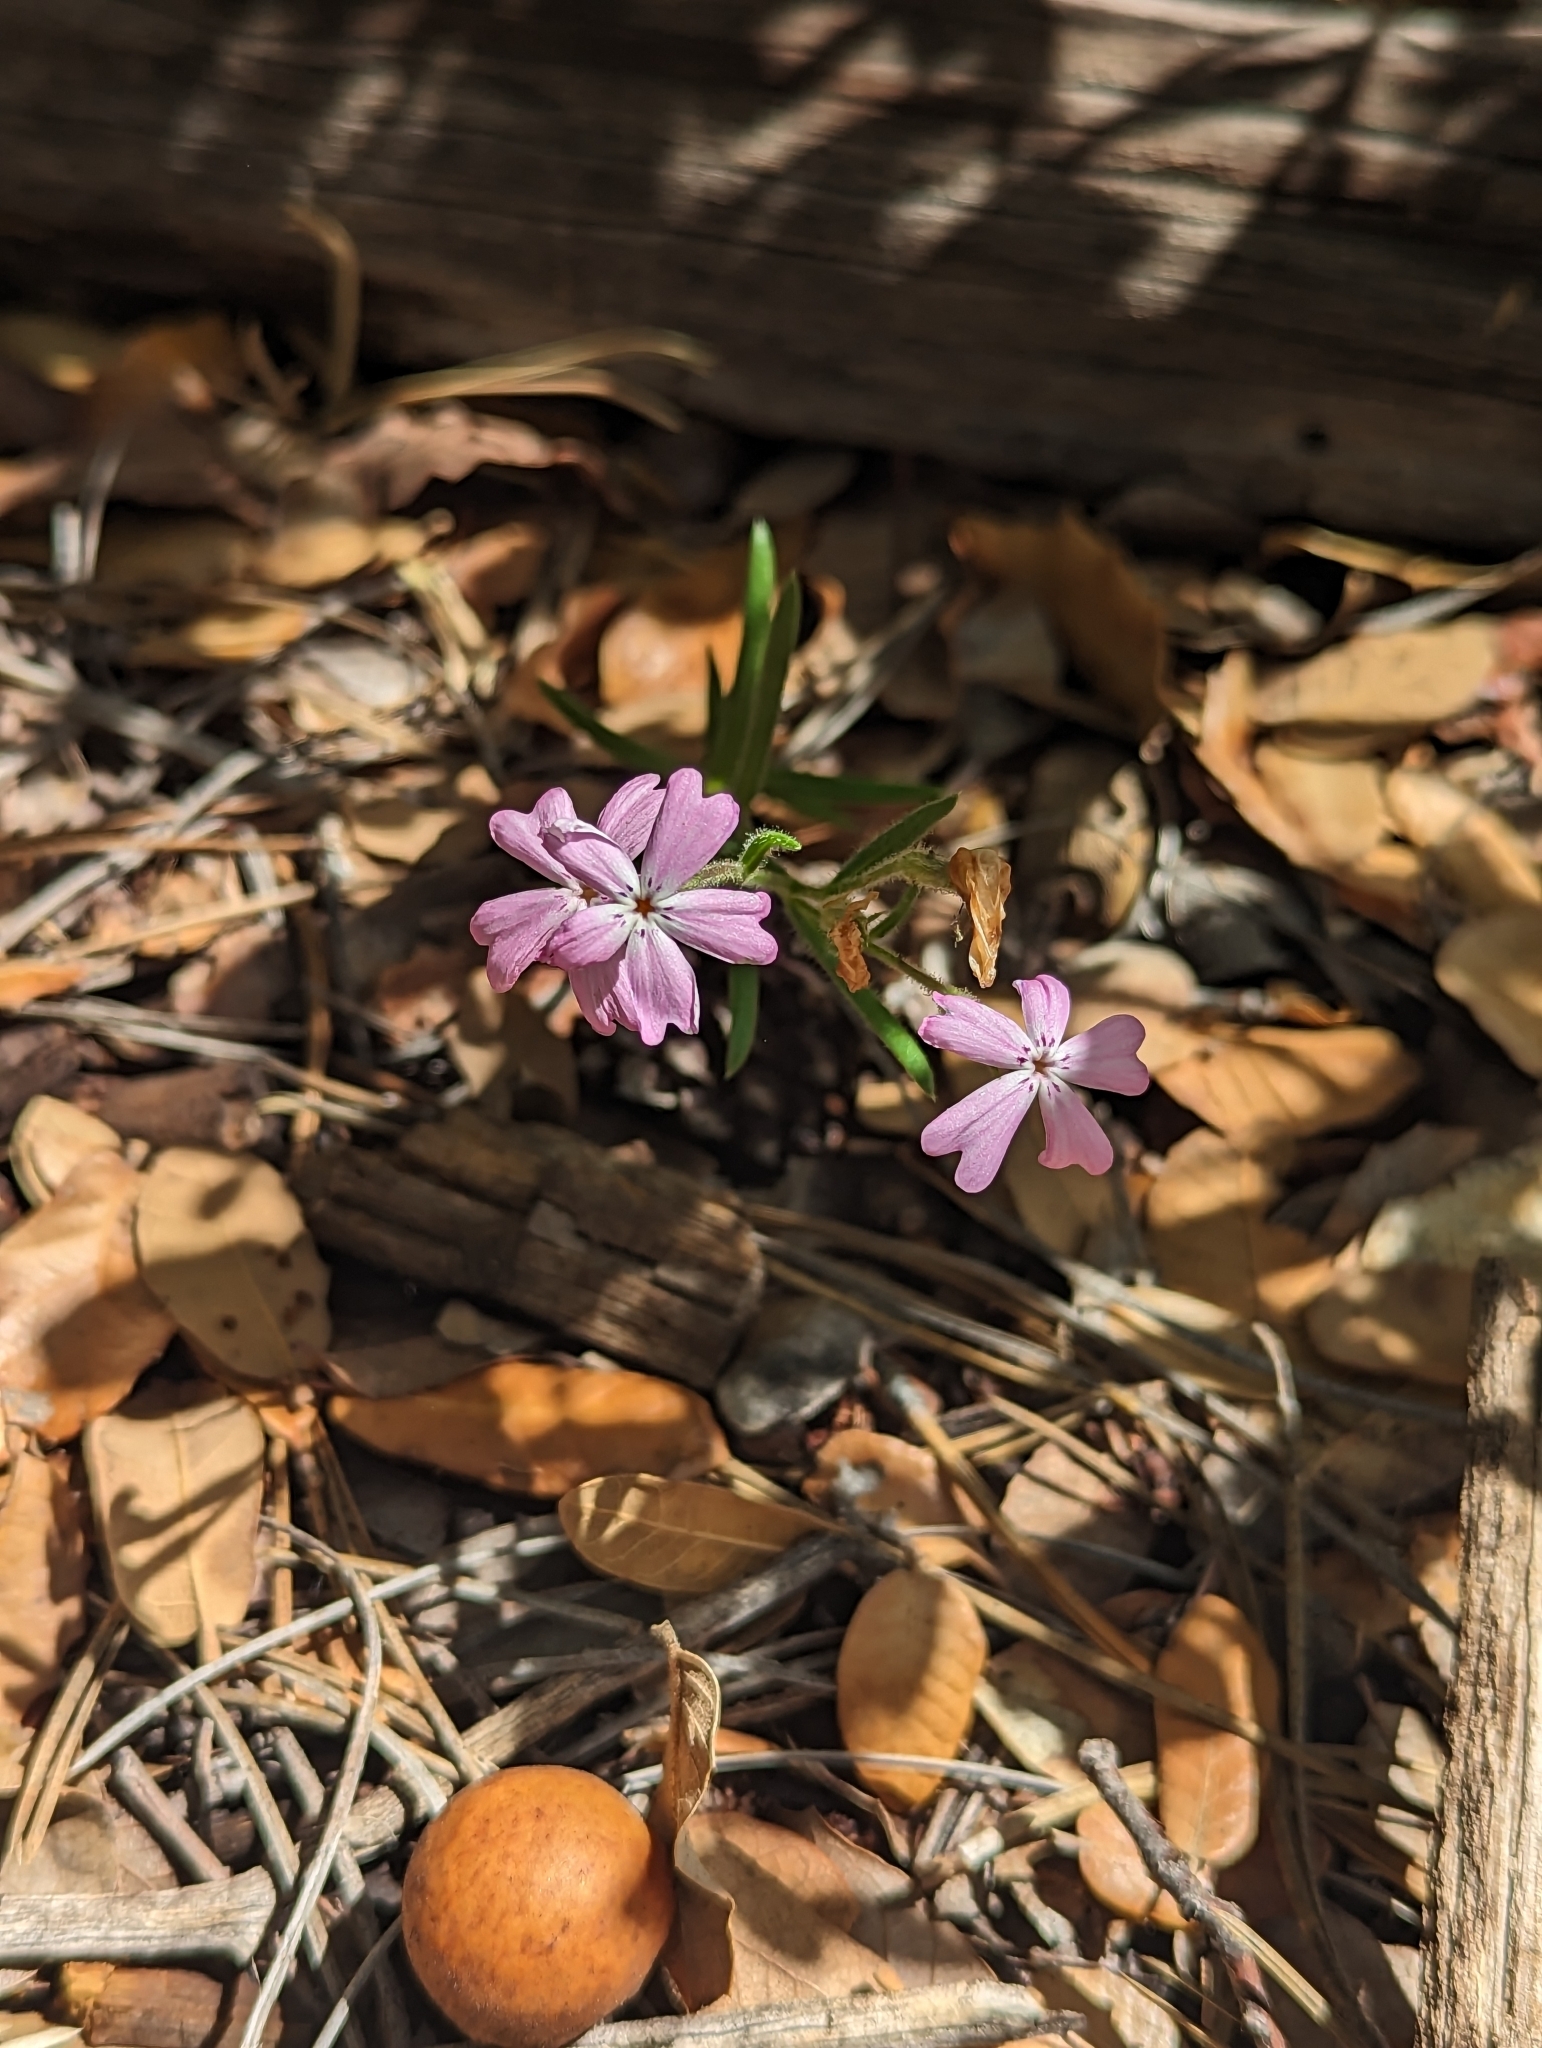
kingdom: Plantae
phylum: Tracheophyta
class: Magnoliopsida
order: Ericales
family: Polemoniaceae
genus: Phlox
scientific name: Phlox woodhousei
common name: Star phlox
